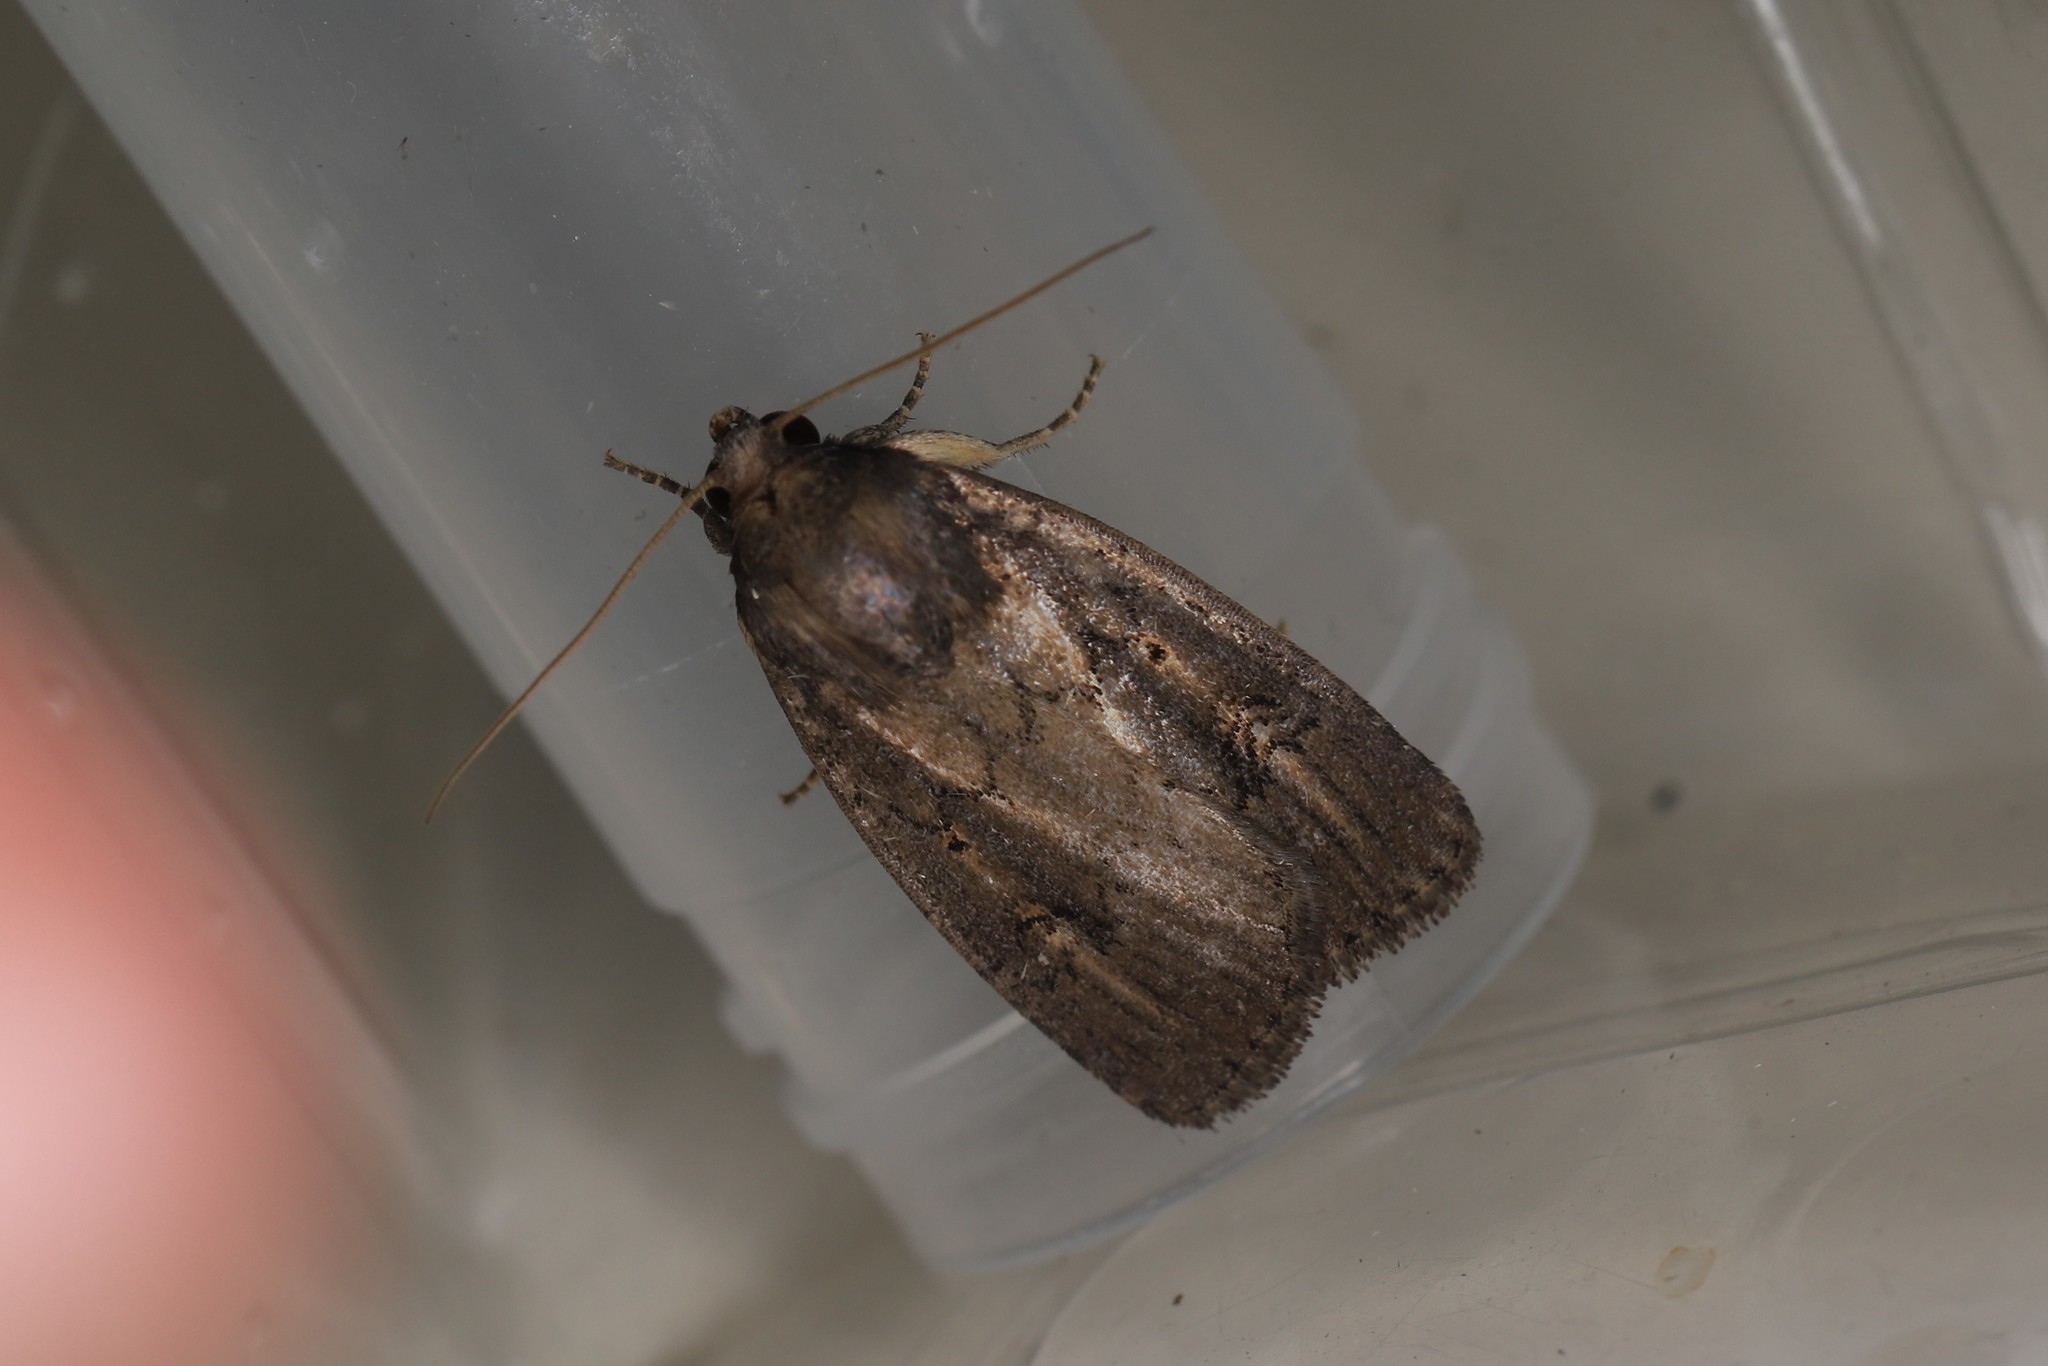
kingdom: Animalia
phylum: Arthropoda
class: Insecta
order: Lepidoptera
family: Noctuidae
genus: Athetis
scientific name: Athetis hospes
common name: Porter's rustic
